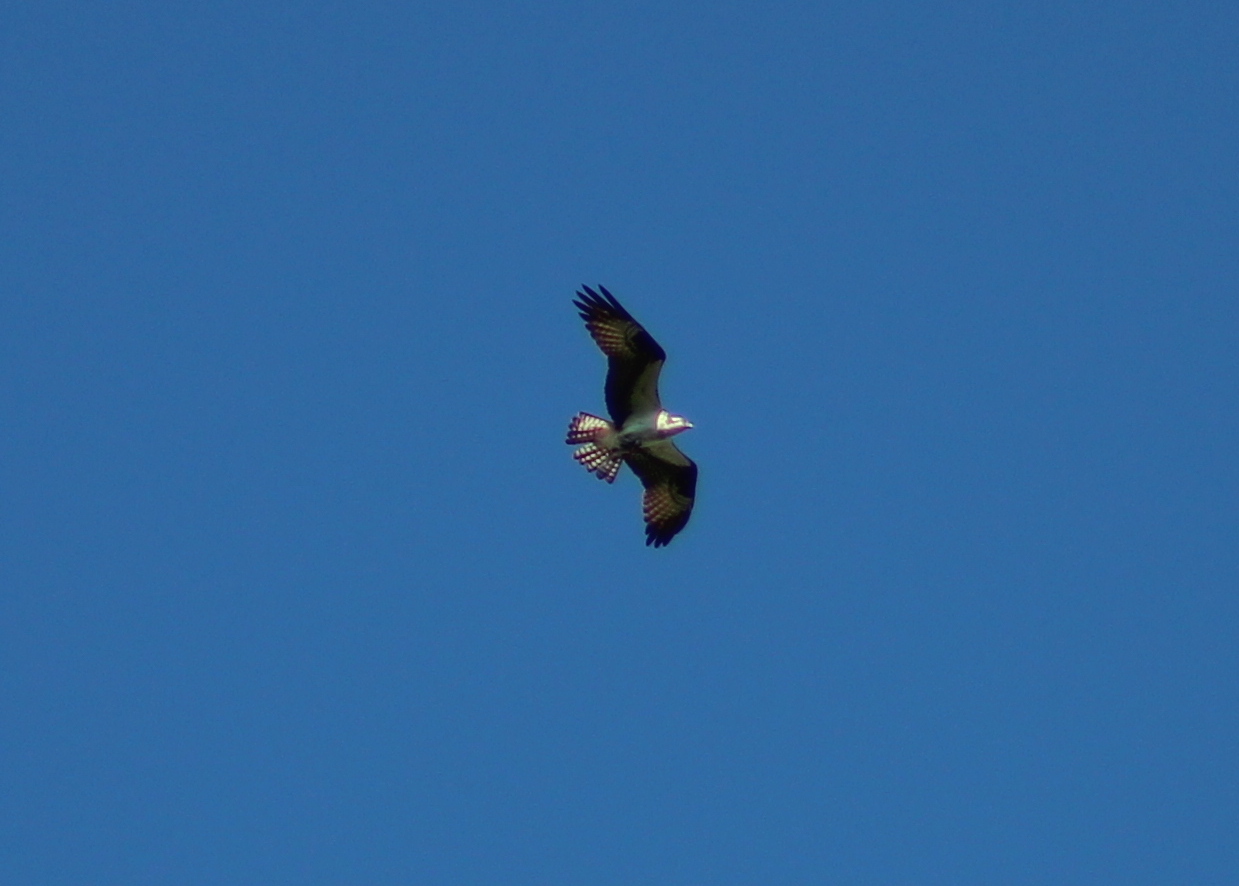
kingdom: Animalia
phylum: Chordata
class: Aves
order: Accipitriformes
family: Pandionidae
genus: Pandion
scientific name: Pandion haliaetus
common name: Osprey
